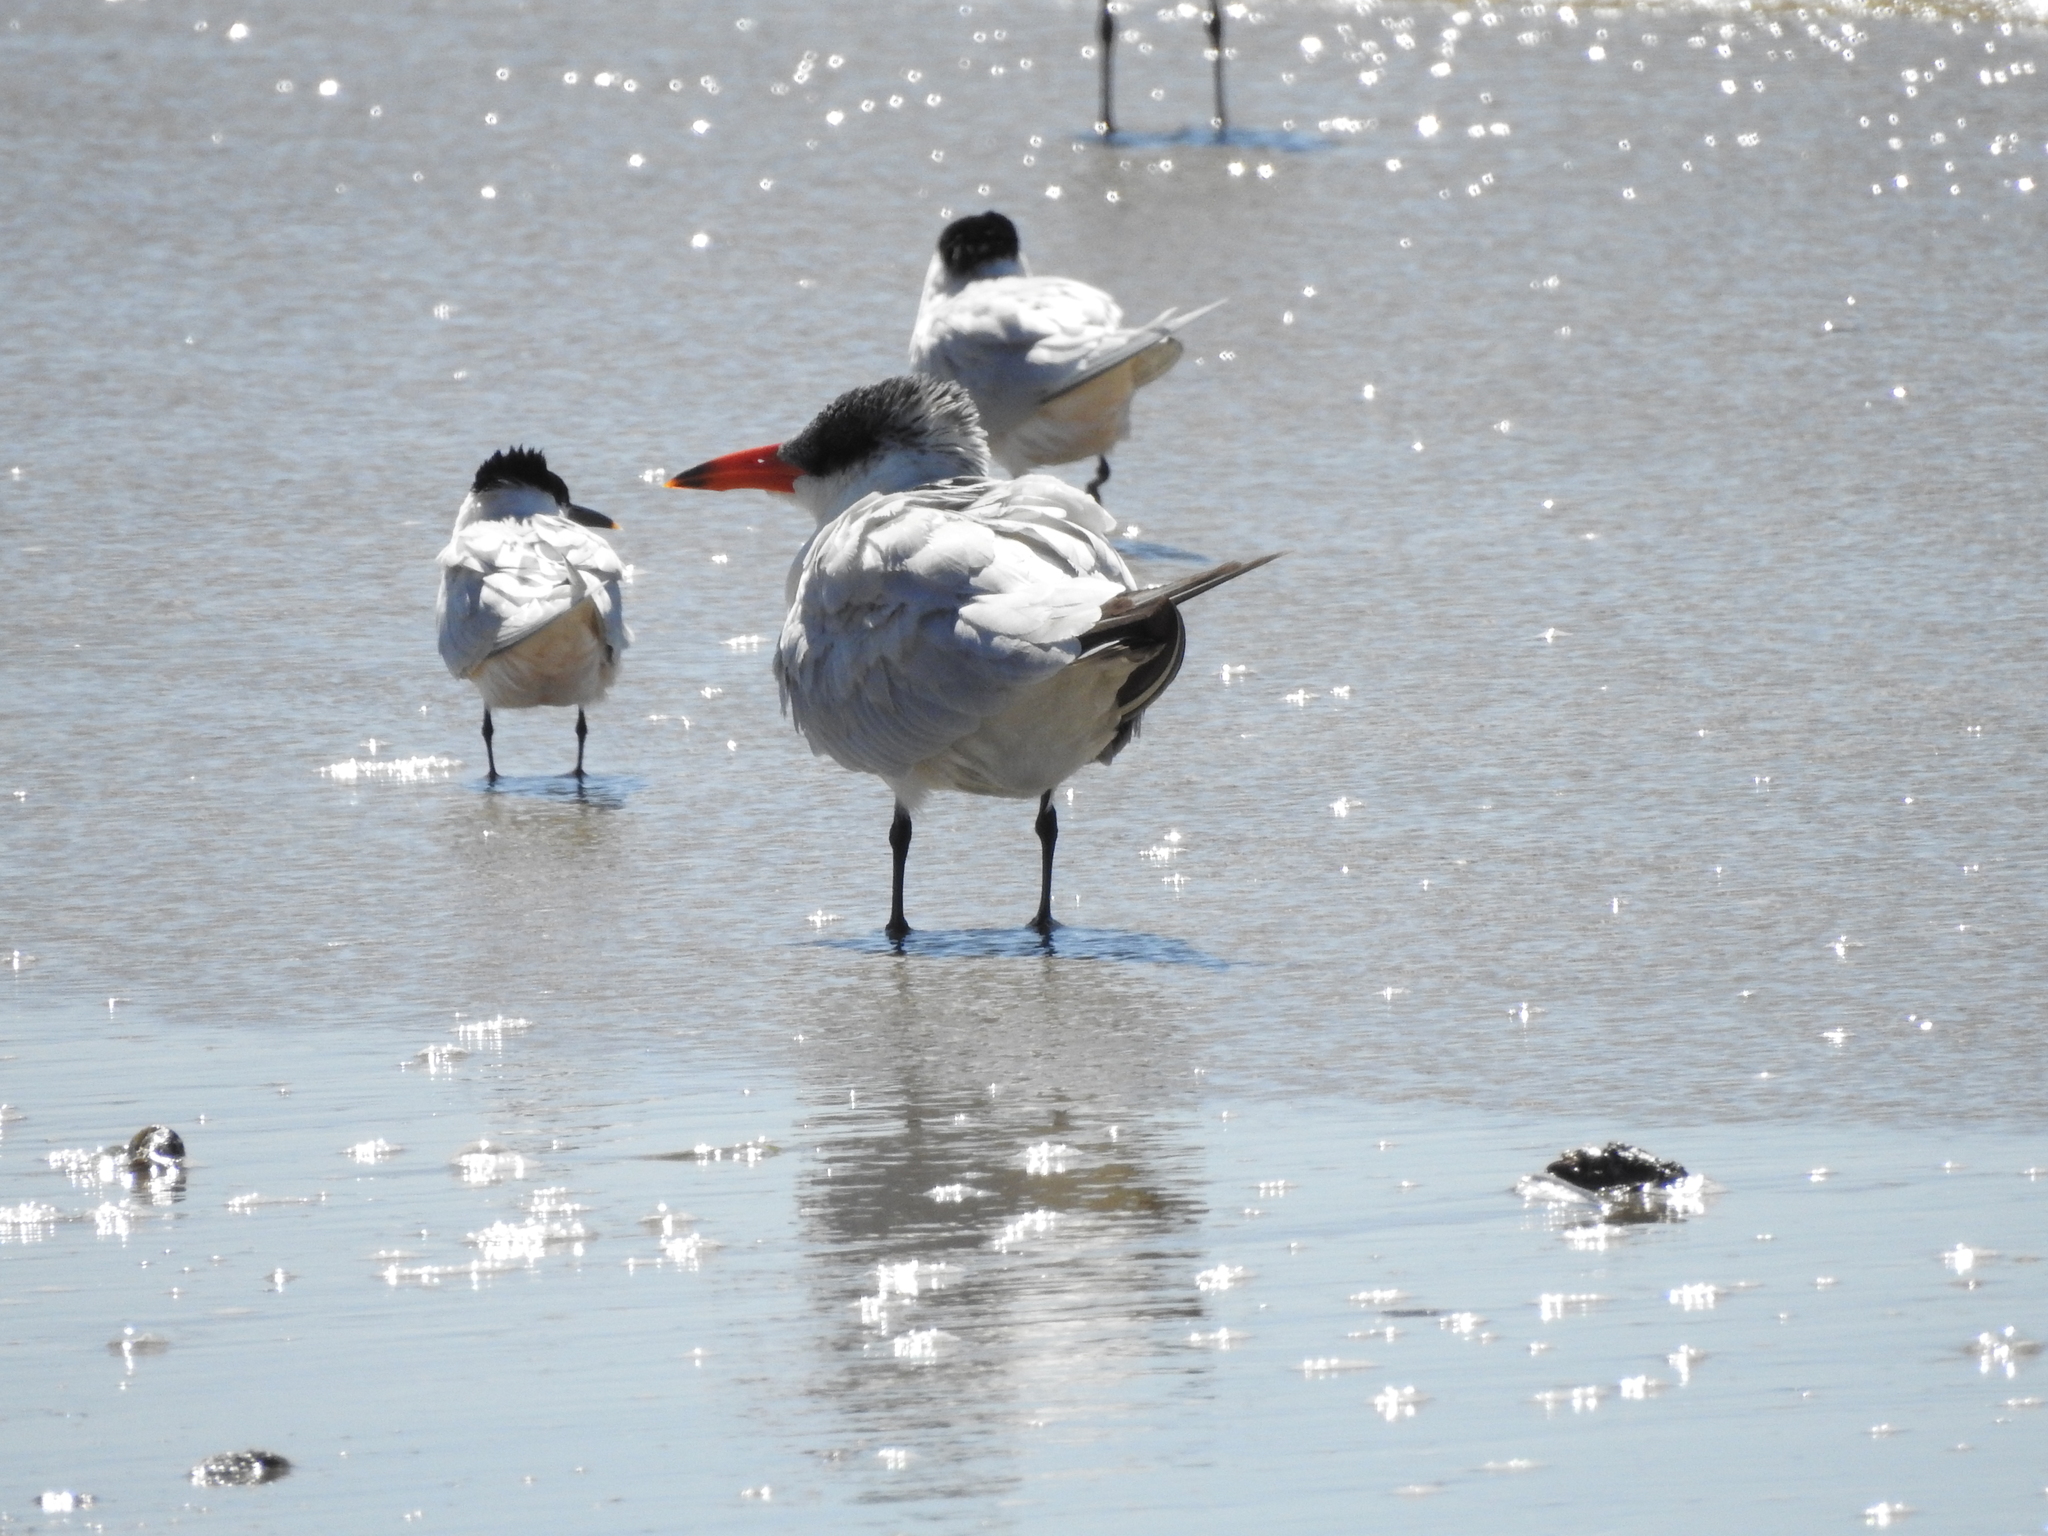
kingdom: Animalia
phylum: Chordata
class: Aves
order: Charadriiformes
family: Laridae
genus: Hydroprogne
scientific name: Hydroprogne caspia
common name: Caspian tern
